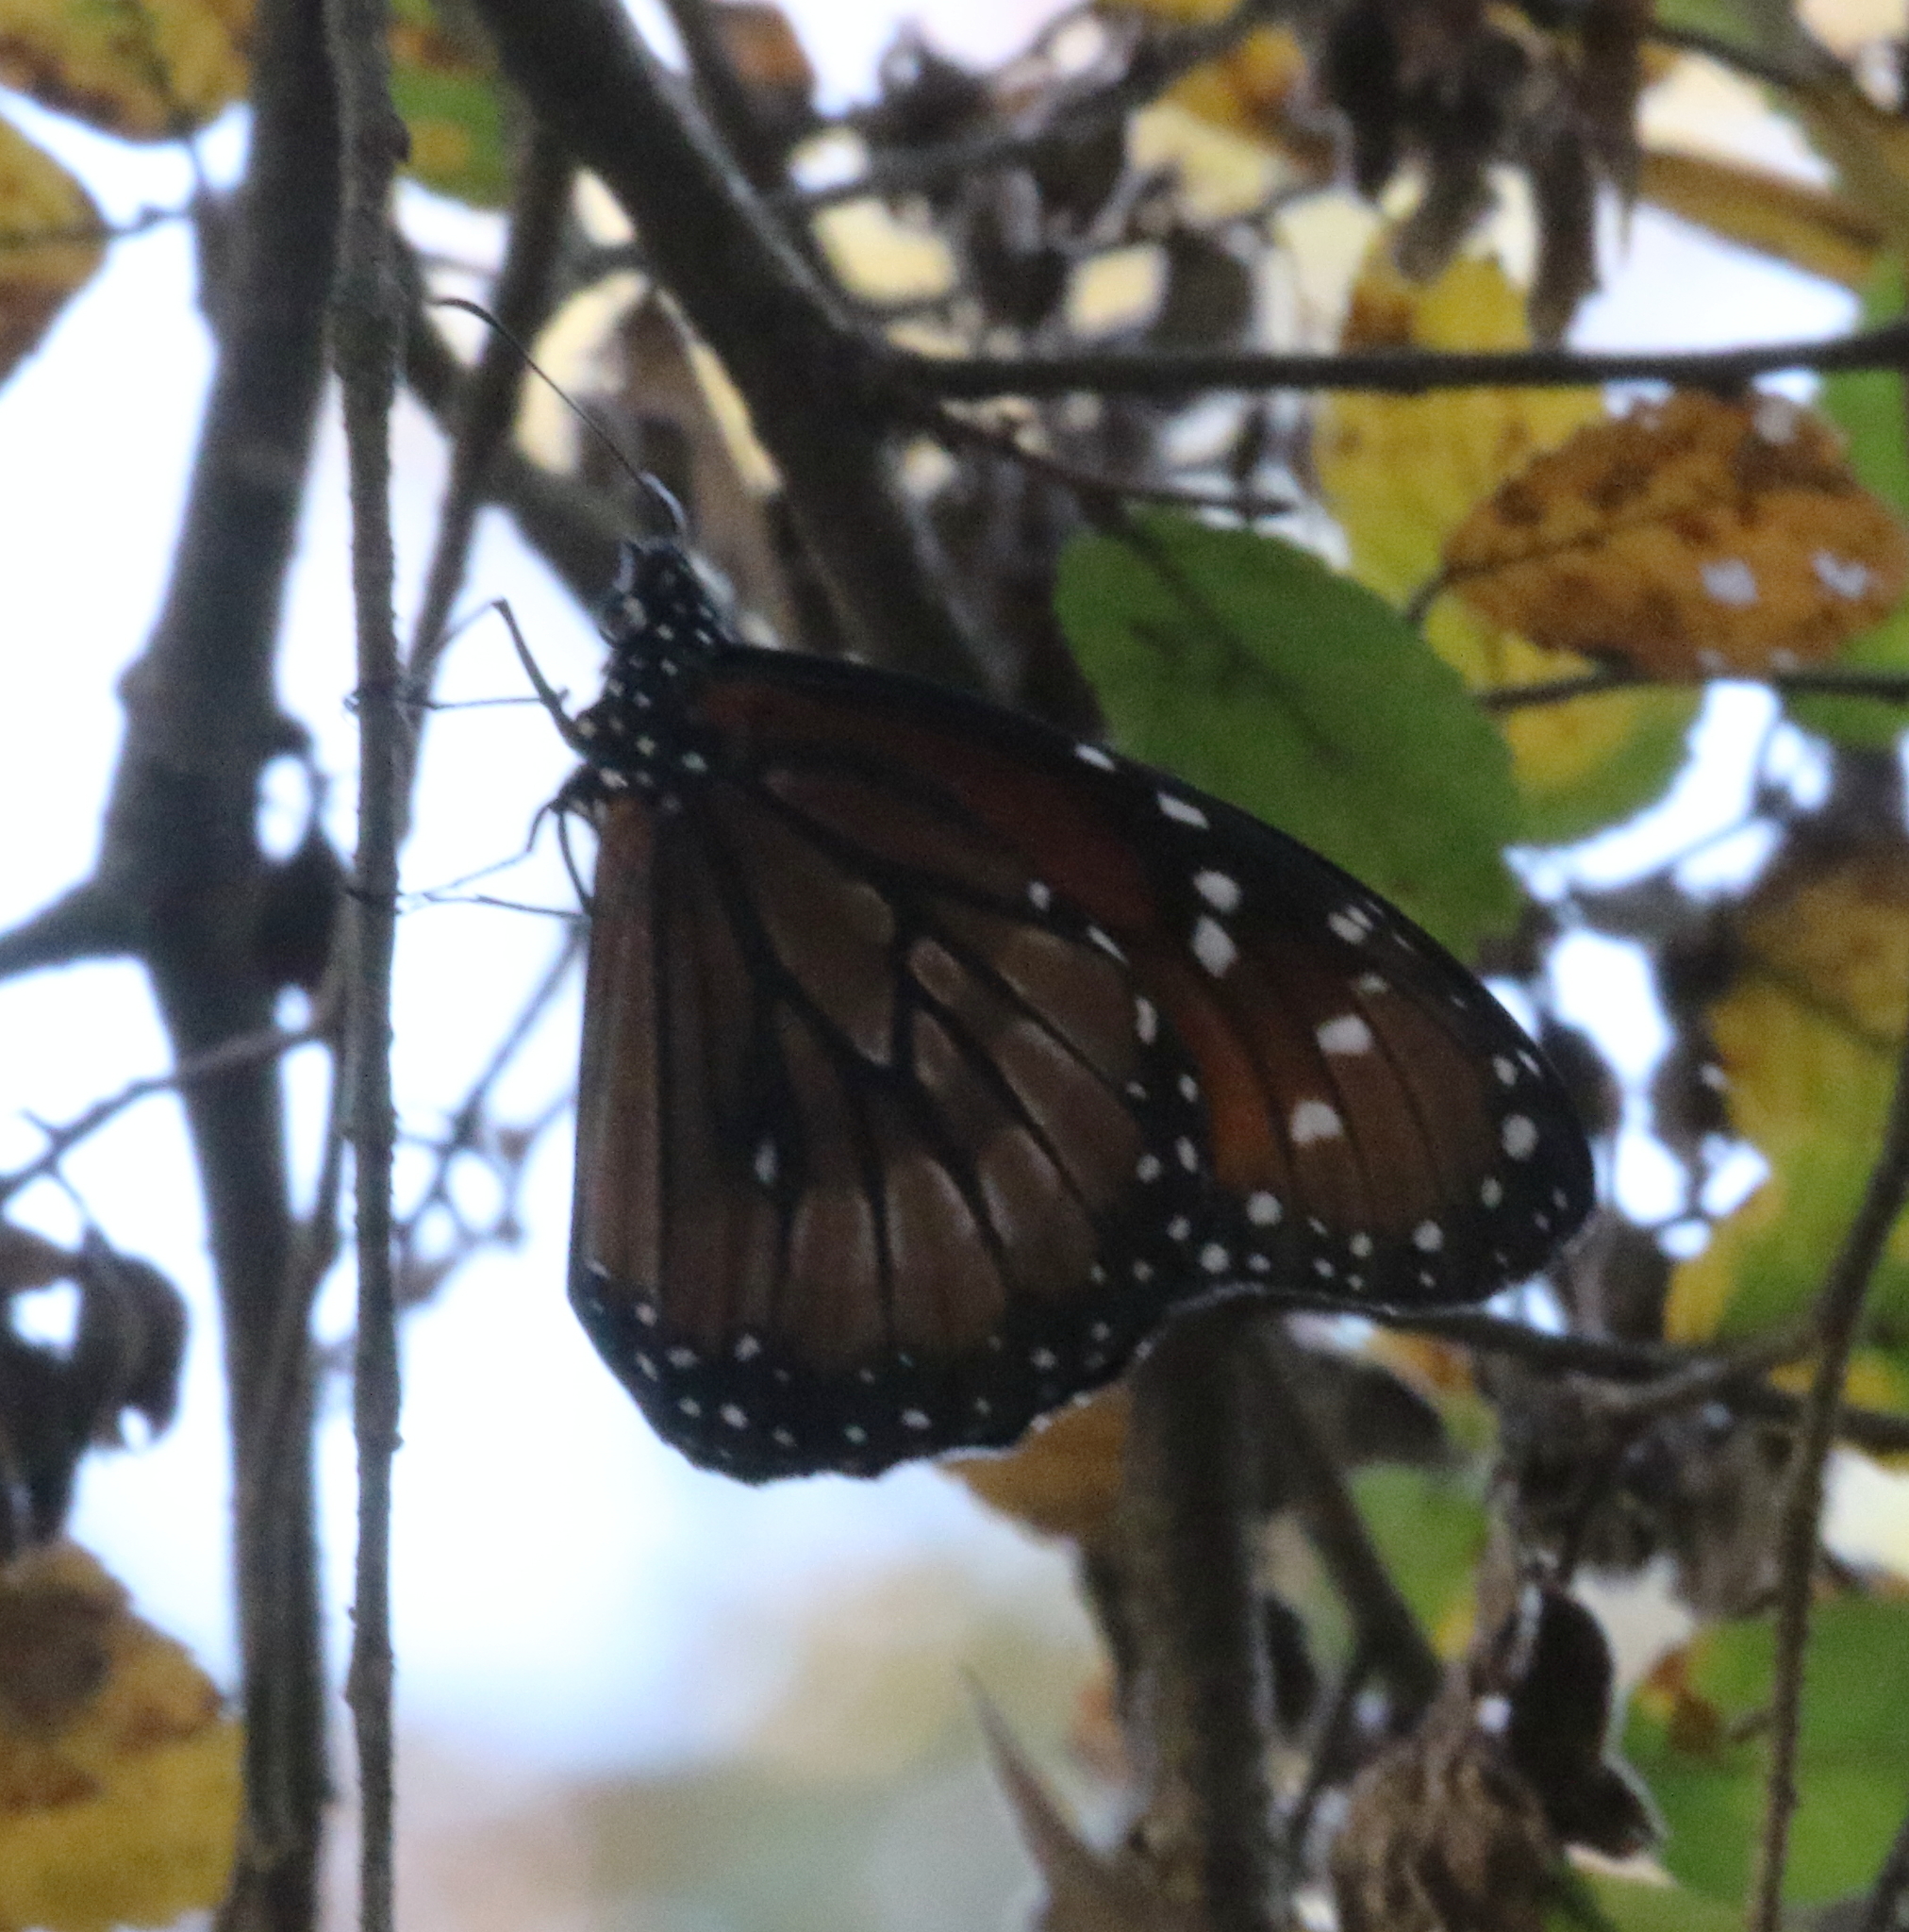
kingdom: Animalia
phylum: Arthropoda
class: Insecta
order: Lepidoptera
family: Nymphalidae
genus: Danaus
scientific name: Danaus eresimus
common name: Soldier
